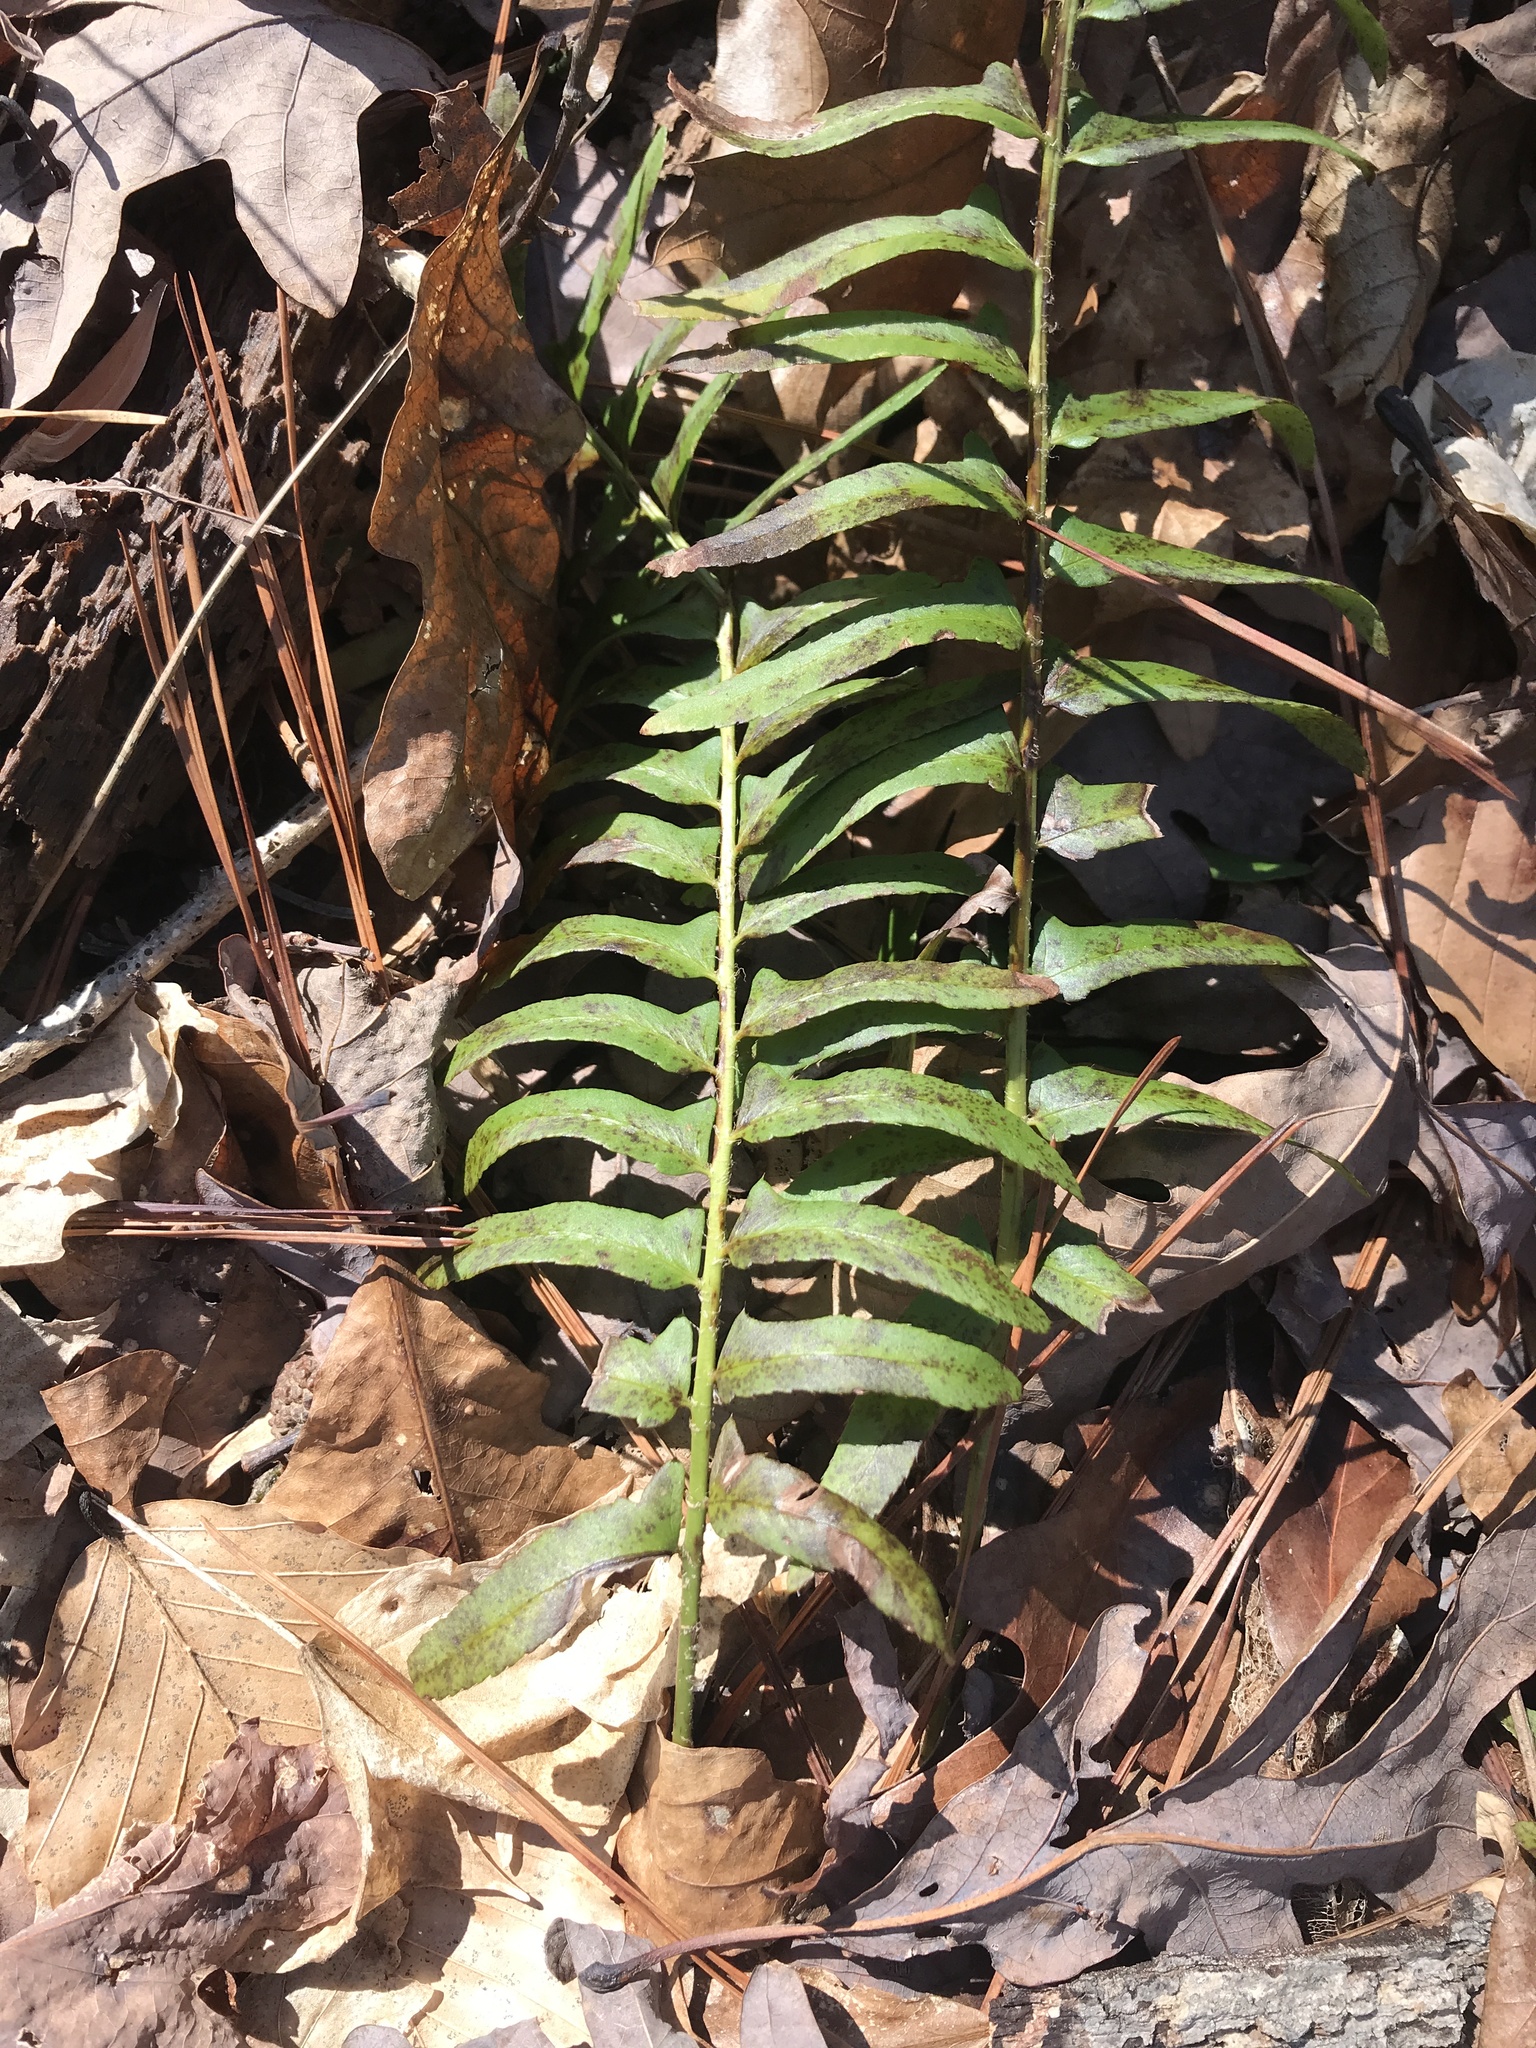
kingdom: Plantae
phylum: Tracheophyta
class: Polypodiopsida
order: Polypodiales
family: Dryopteridaceae
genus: Polystichum
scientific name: Polystichum acrostichoides
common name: Christmas fern
